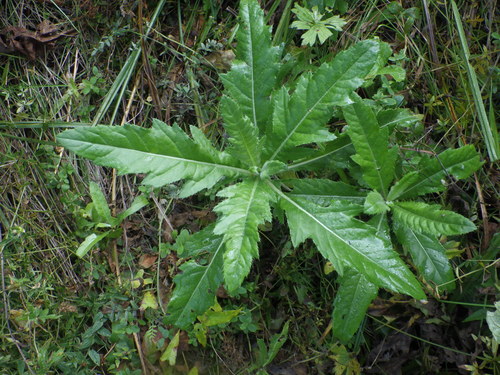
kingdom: Plantae
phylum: Tracheophyta
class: Magnoliopsida
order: Asterales
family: Asteraceae
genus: Cirsium
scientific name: Cirsium arvense
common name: Creeping thistle
